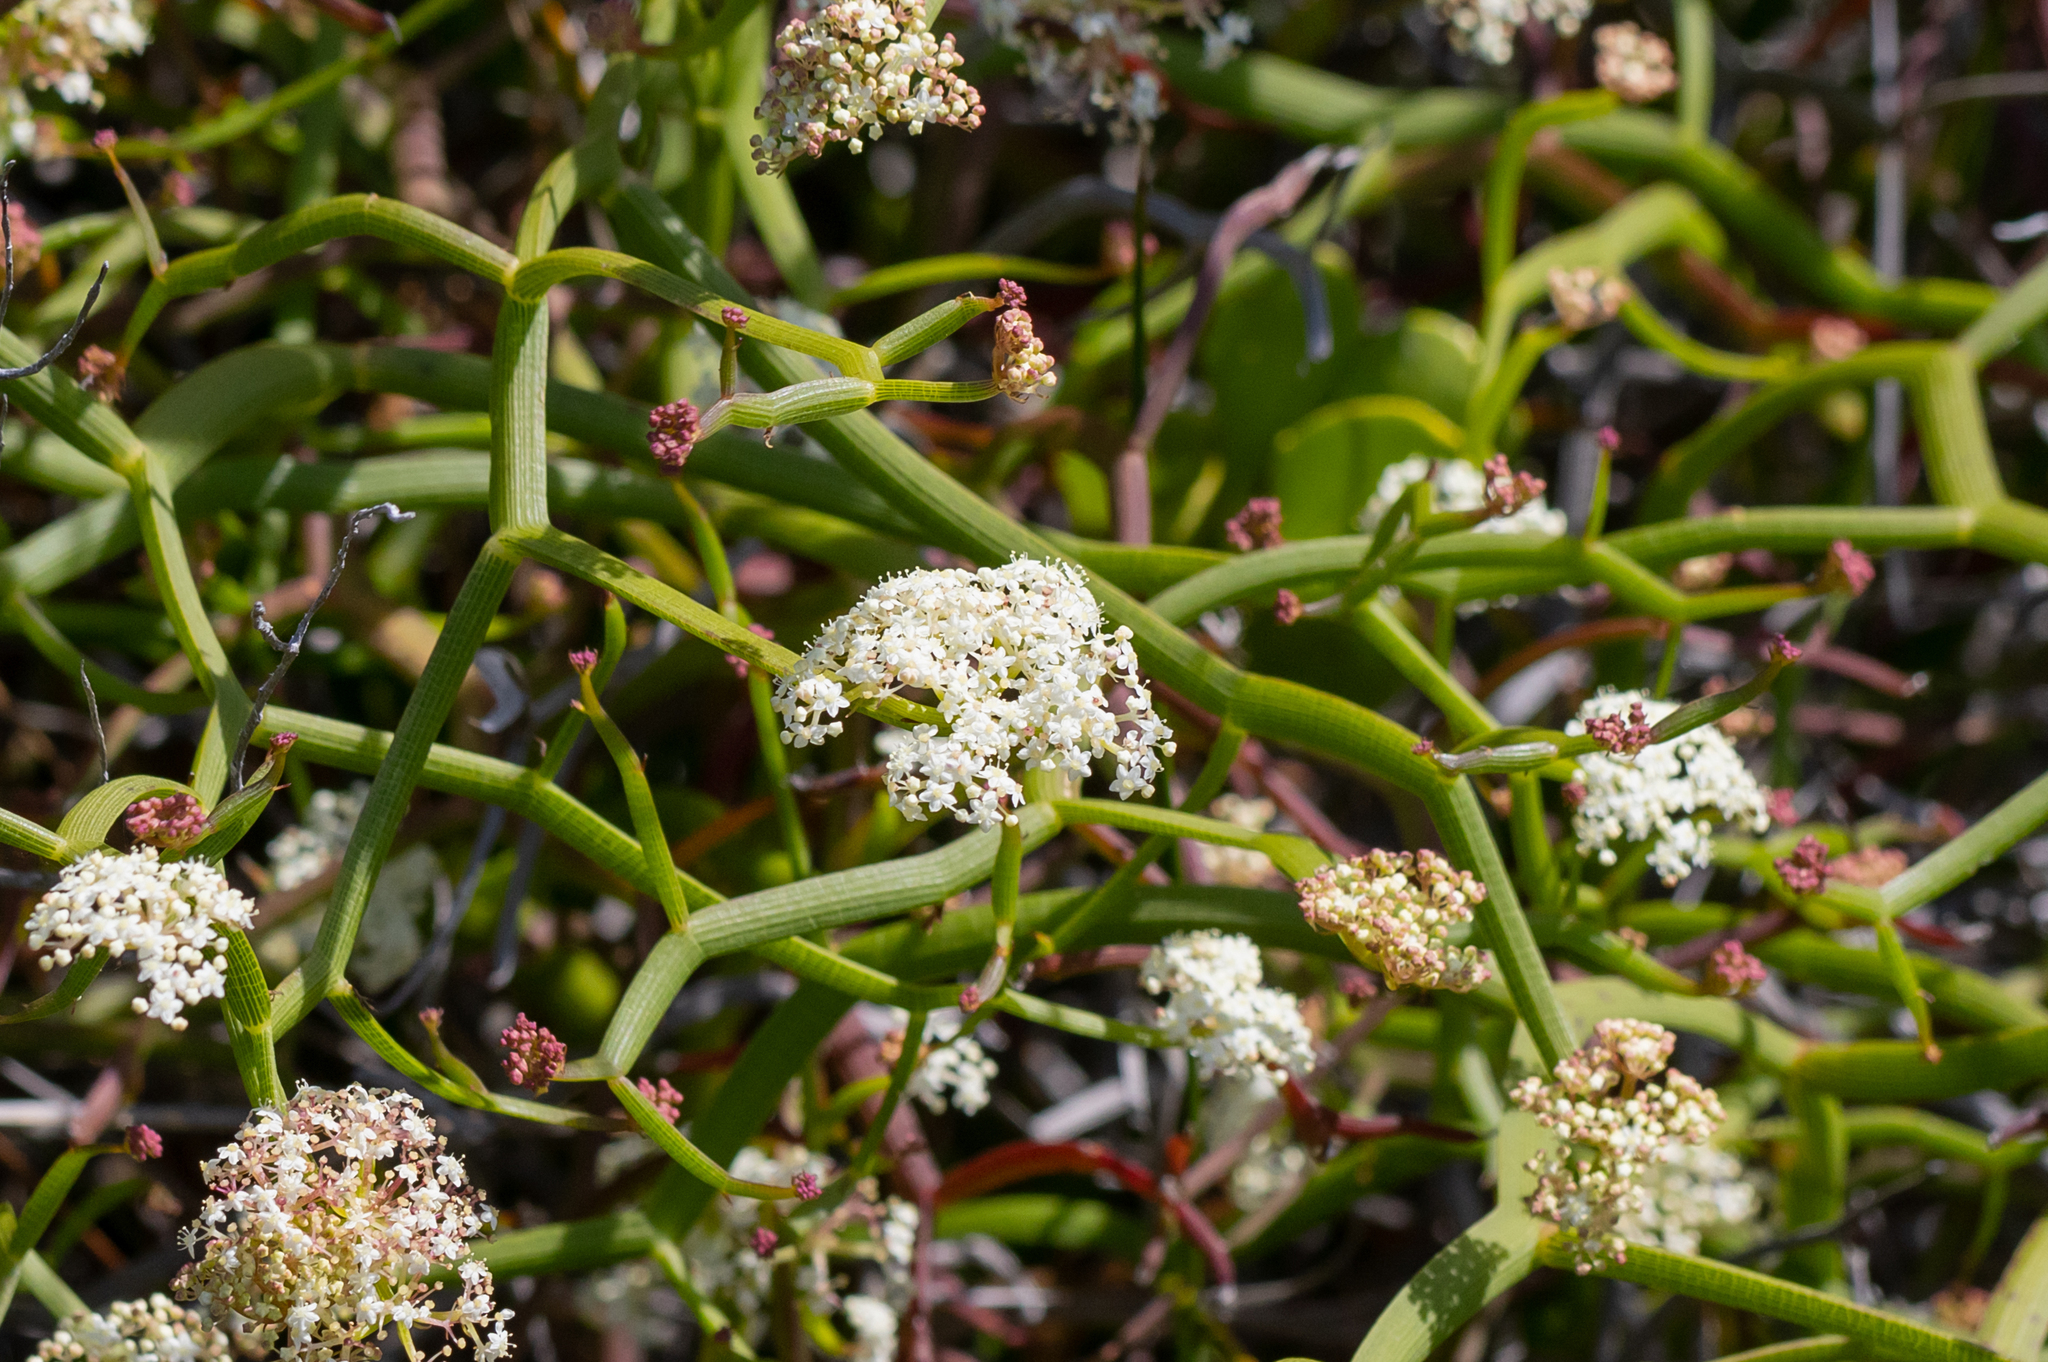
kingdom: Plantae
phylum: Tracheophyta
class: Magnoliopsida
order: Apiales
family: Apiaceae
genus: Platysace
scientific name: Platysace compressa
